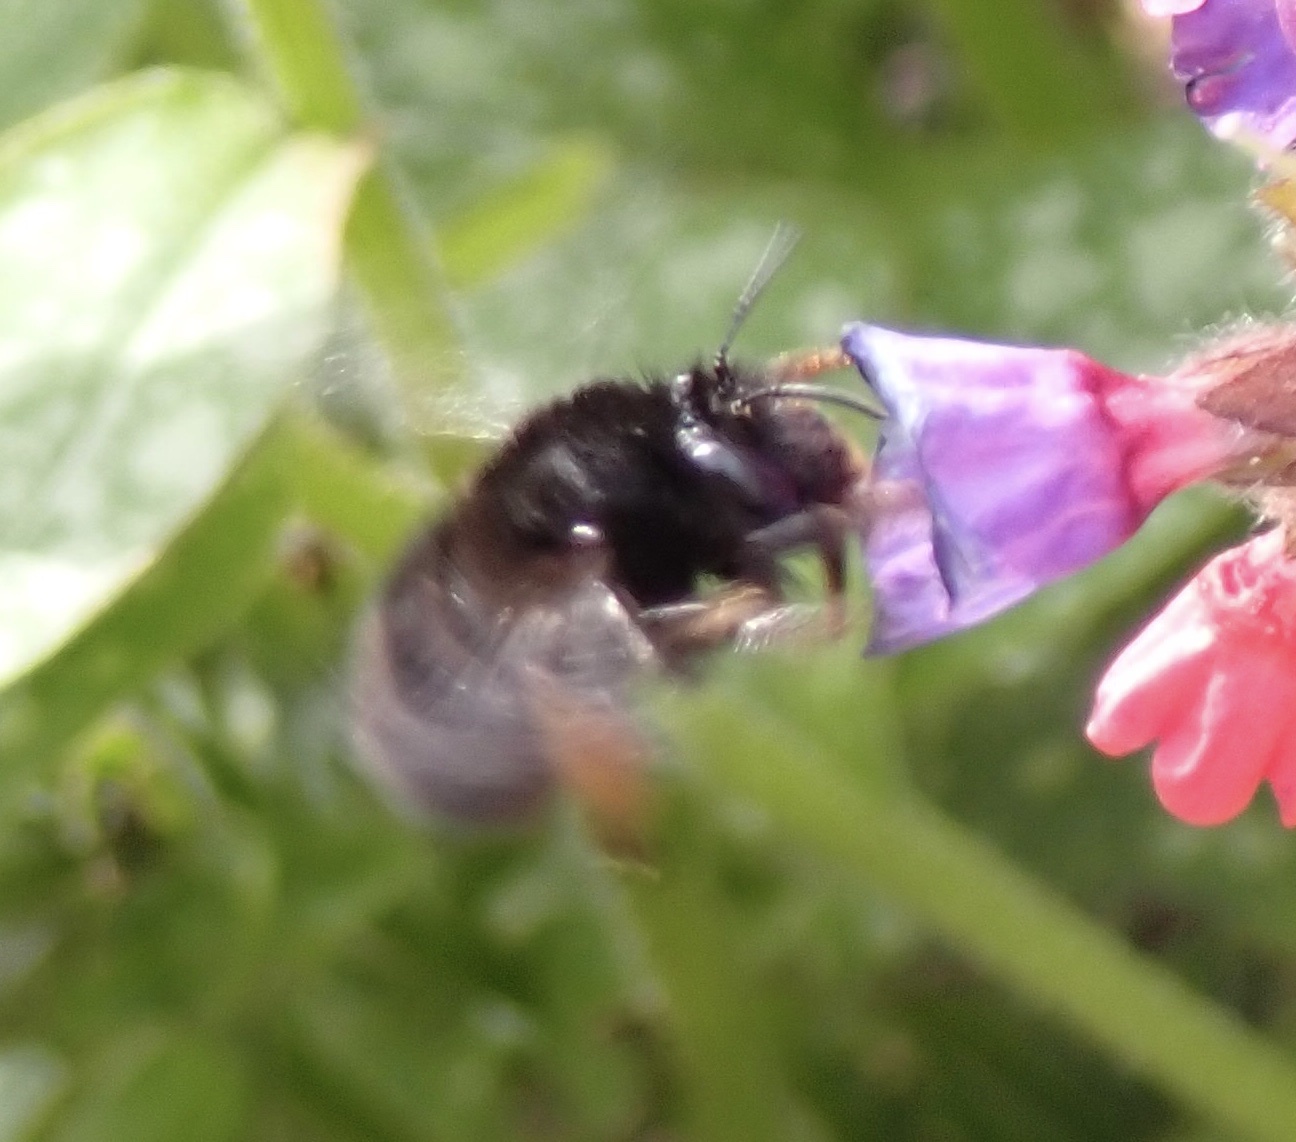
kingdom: Animalia
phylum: Arthropoda
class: Insecta
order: Hymenoptera
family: Apidae
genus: Anthophora
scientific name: Anthophora plumipes
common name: Hairy-footed flower bee
